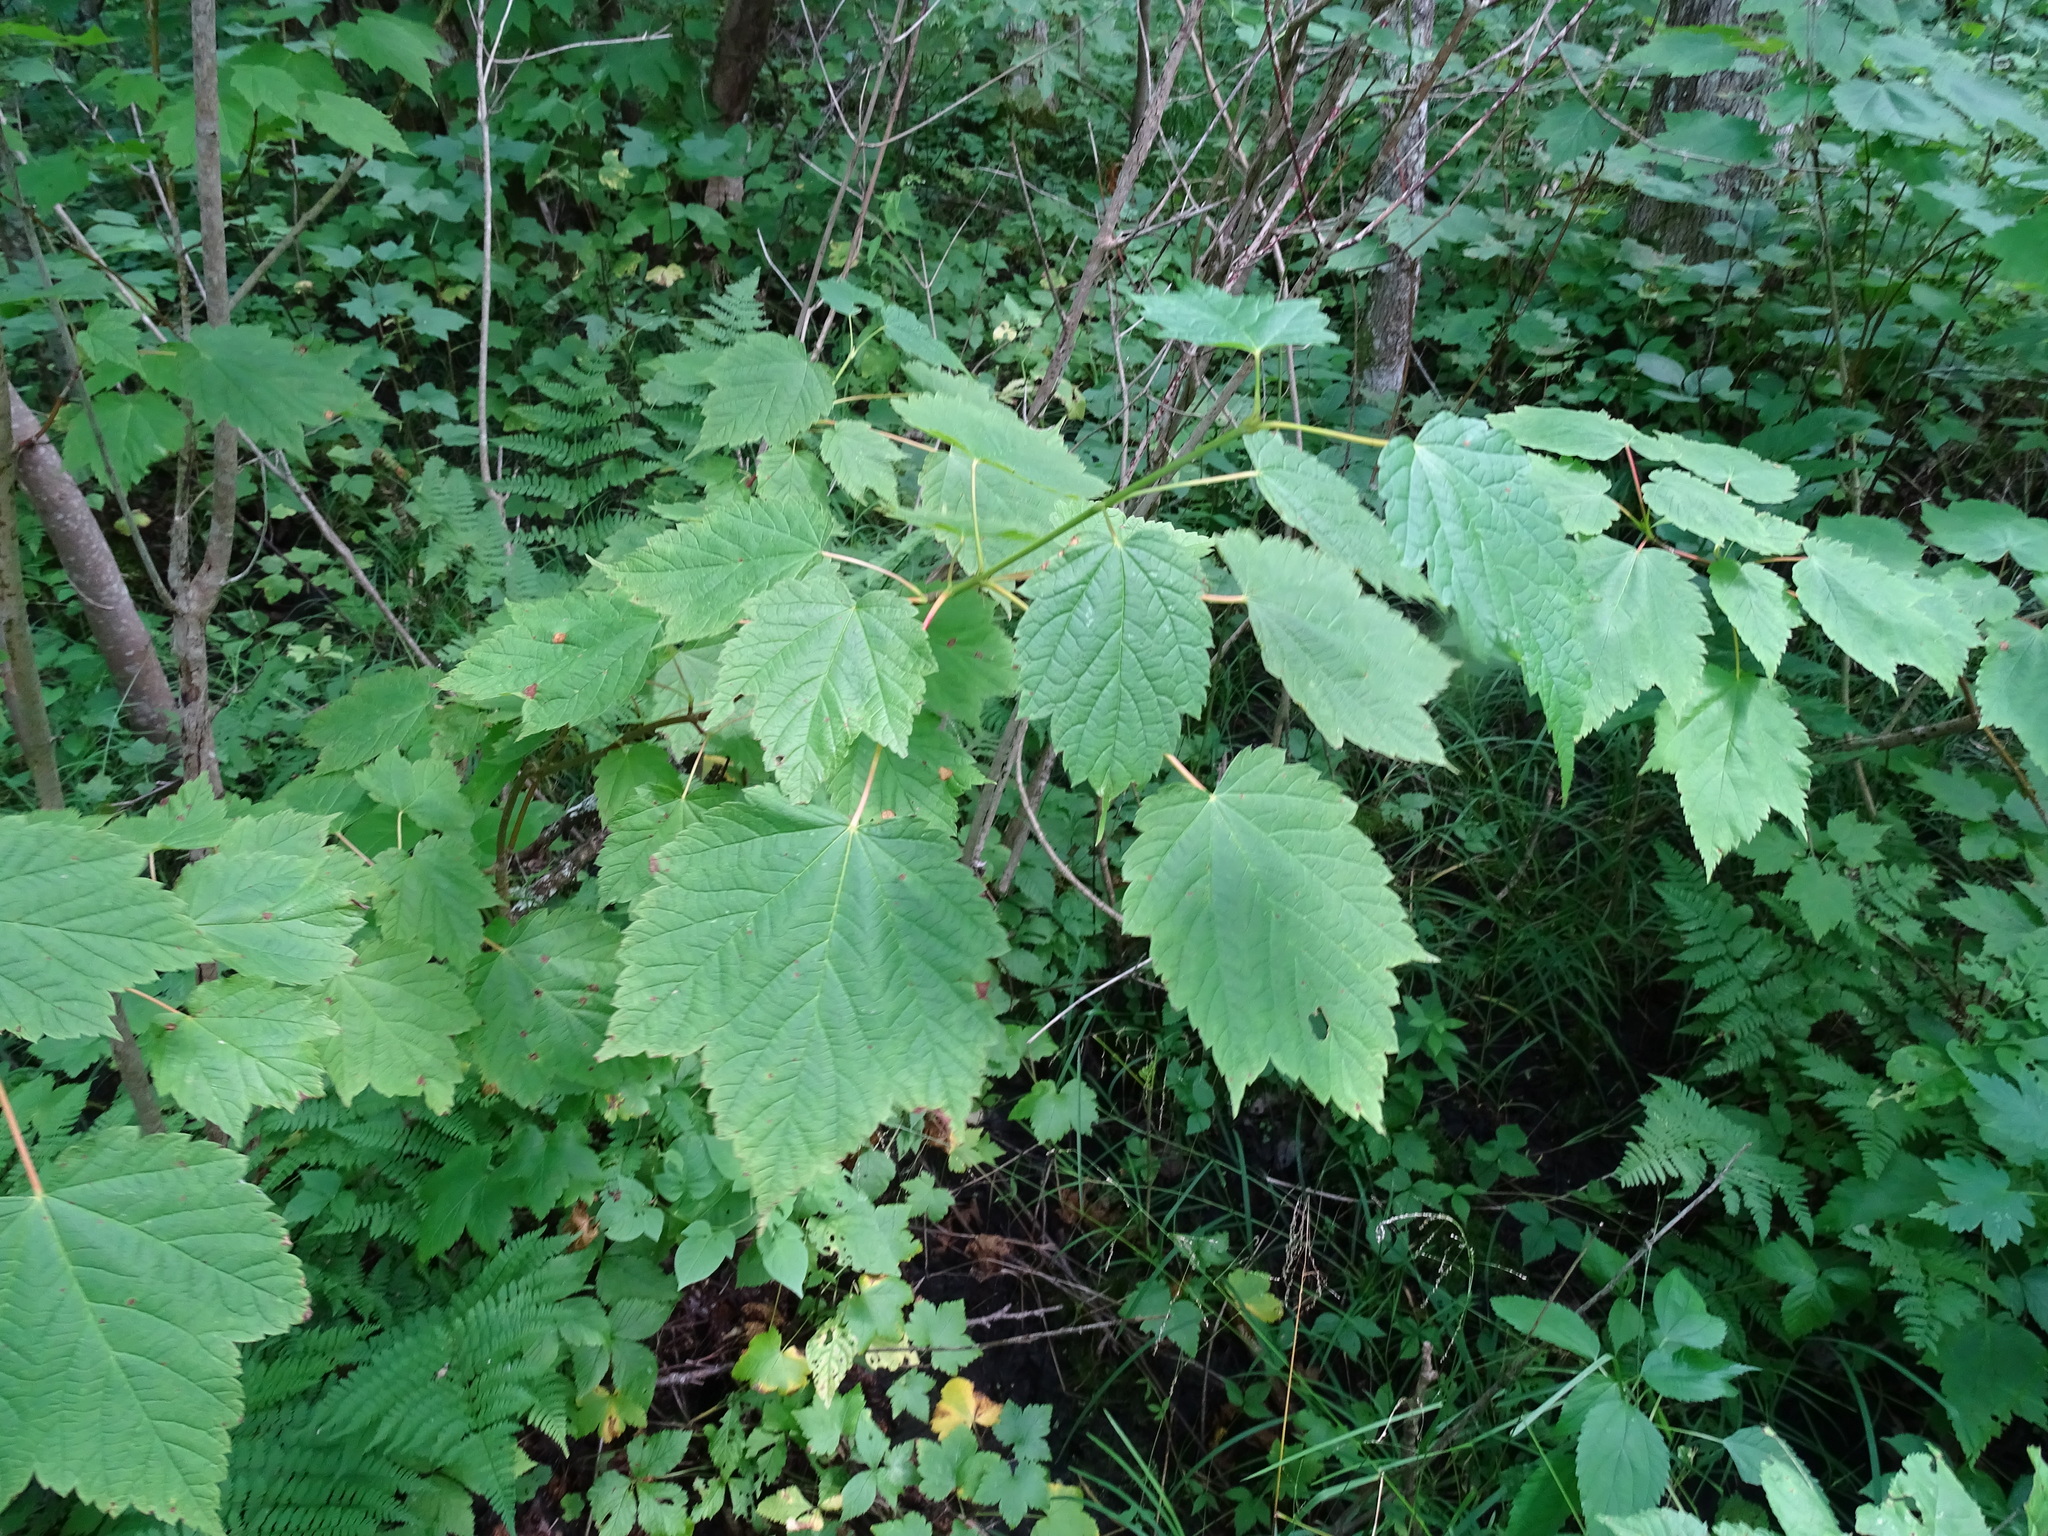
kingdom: Plantae
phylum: Tracheophyta
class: Magnoliopsida
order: Sapindales
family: Sapindaceae
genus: Acer
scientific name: Acer spicatum
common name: Mountain maple
